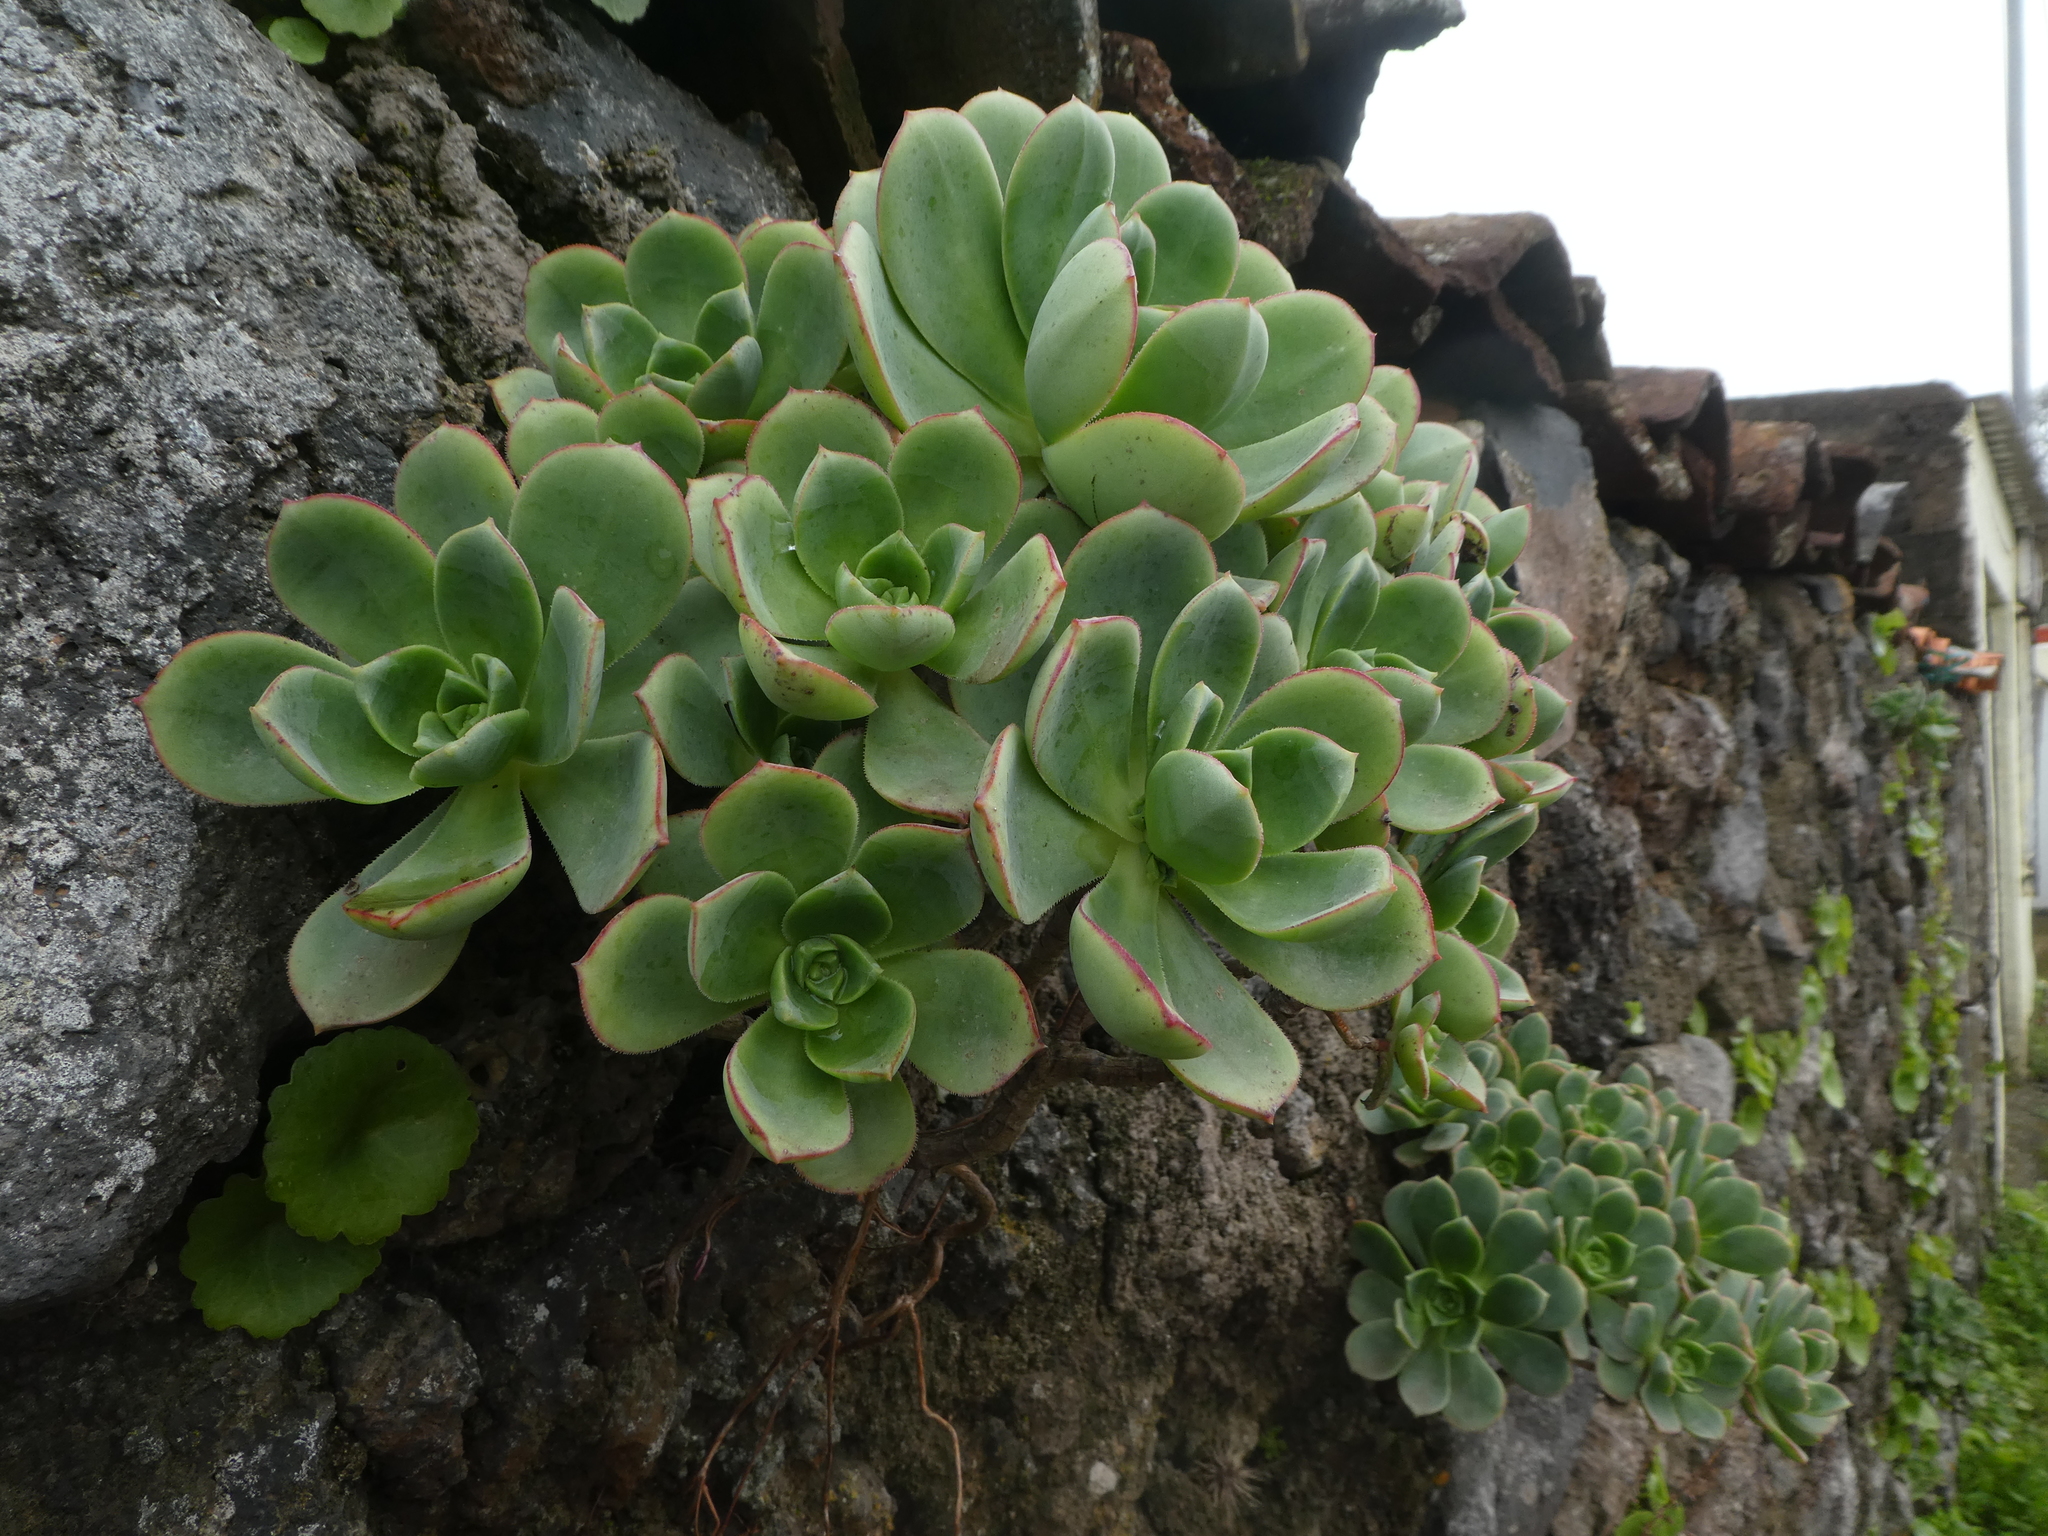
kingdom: Plantae
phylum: Tracheophyta
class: Magnoliopsida
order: Saxifragales
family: Crassulaceae
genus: Aeonium
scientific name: Aeonium haworthii
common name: Haworth's aeonium
